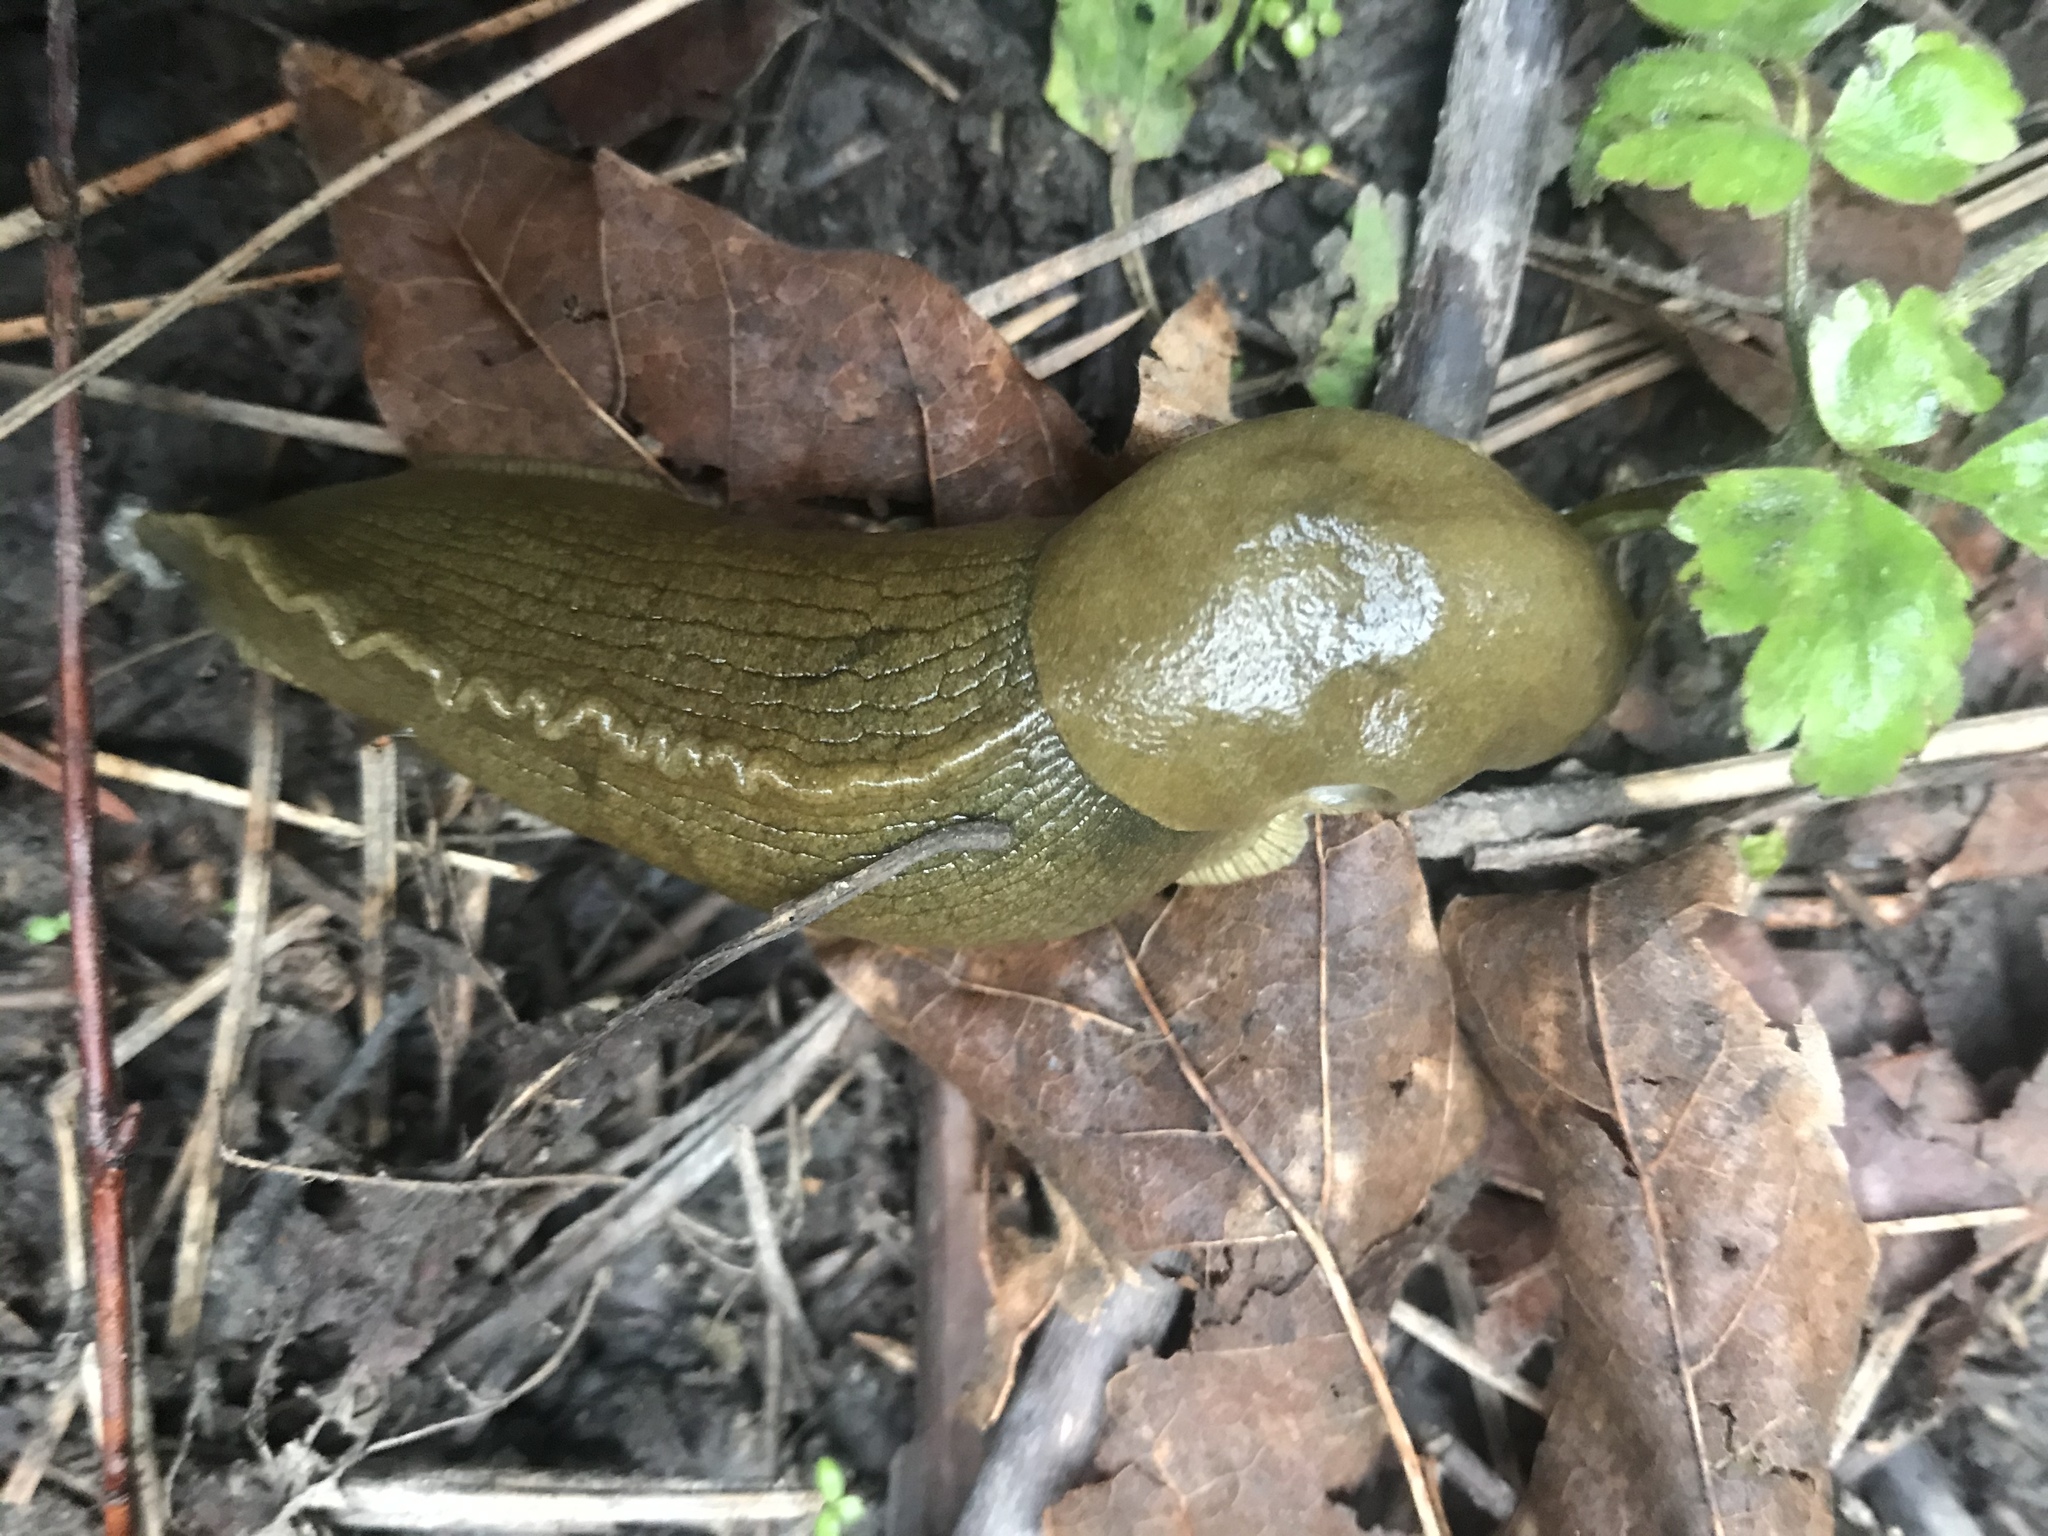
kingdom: Animalia
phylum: Mollusca
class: Gastropoda
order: Stylommatophora
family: Ariolimacidae
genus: Ariolimax
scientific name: Ariolimax columbianus
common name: Pacific banana slug
